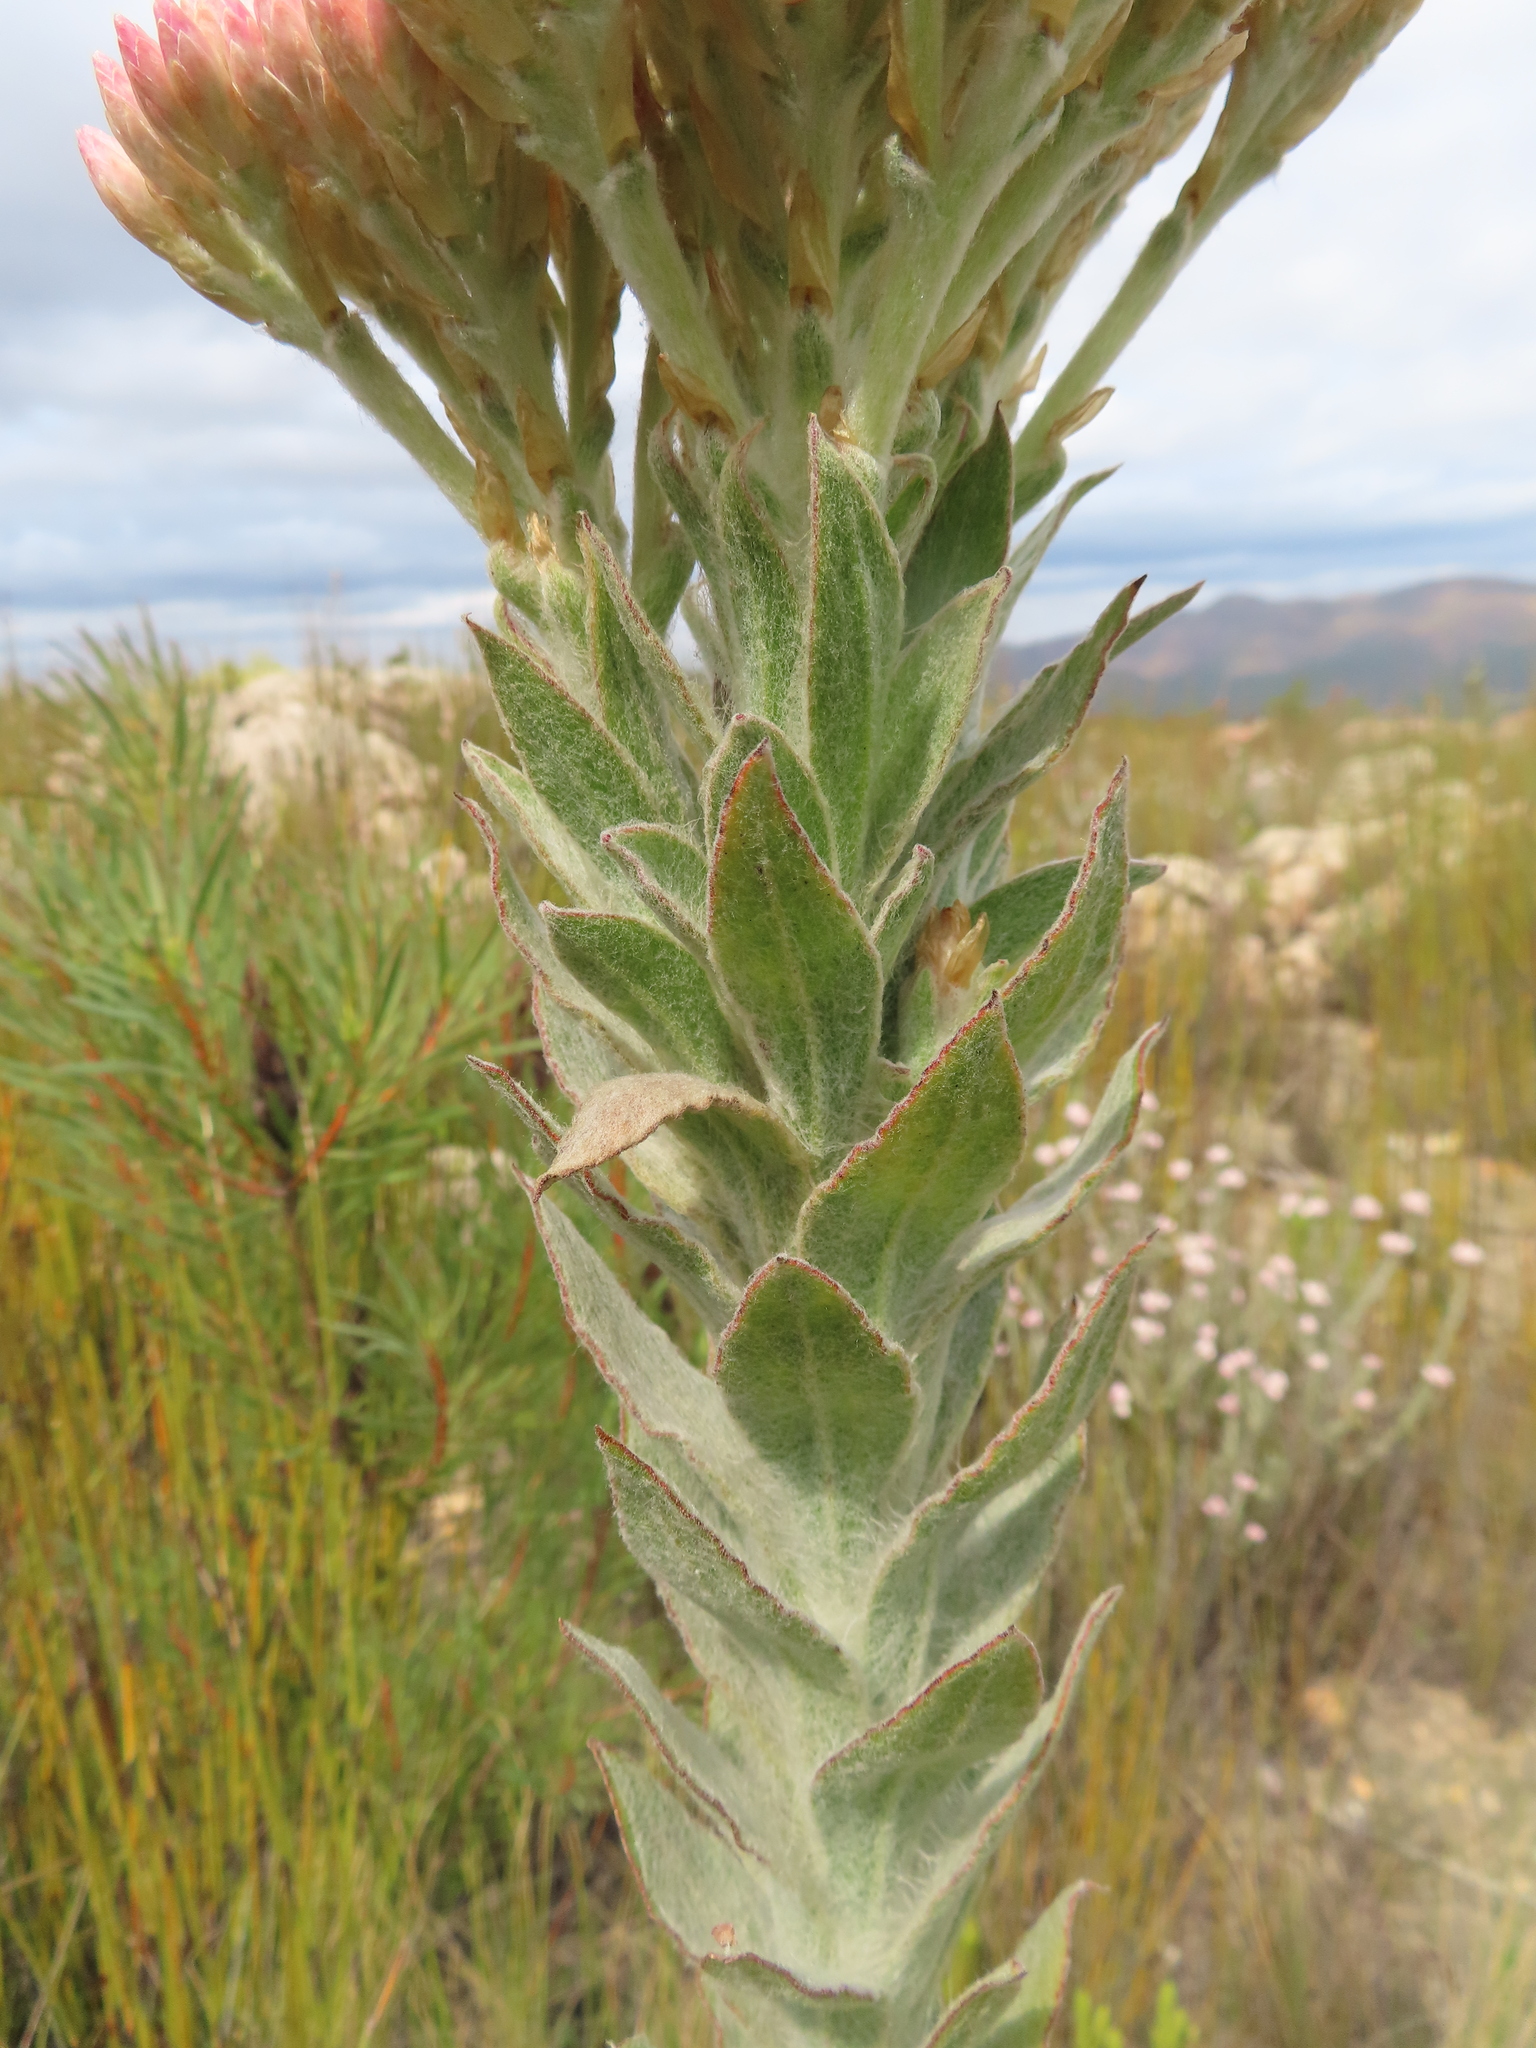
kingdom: Plantae
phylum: Tracheophyta
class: Magnoliopsida
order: Asterales
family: Asteraceae
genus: Syncarpha
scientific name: Syncarpha milleflora
